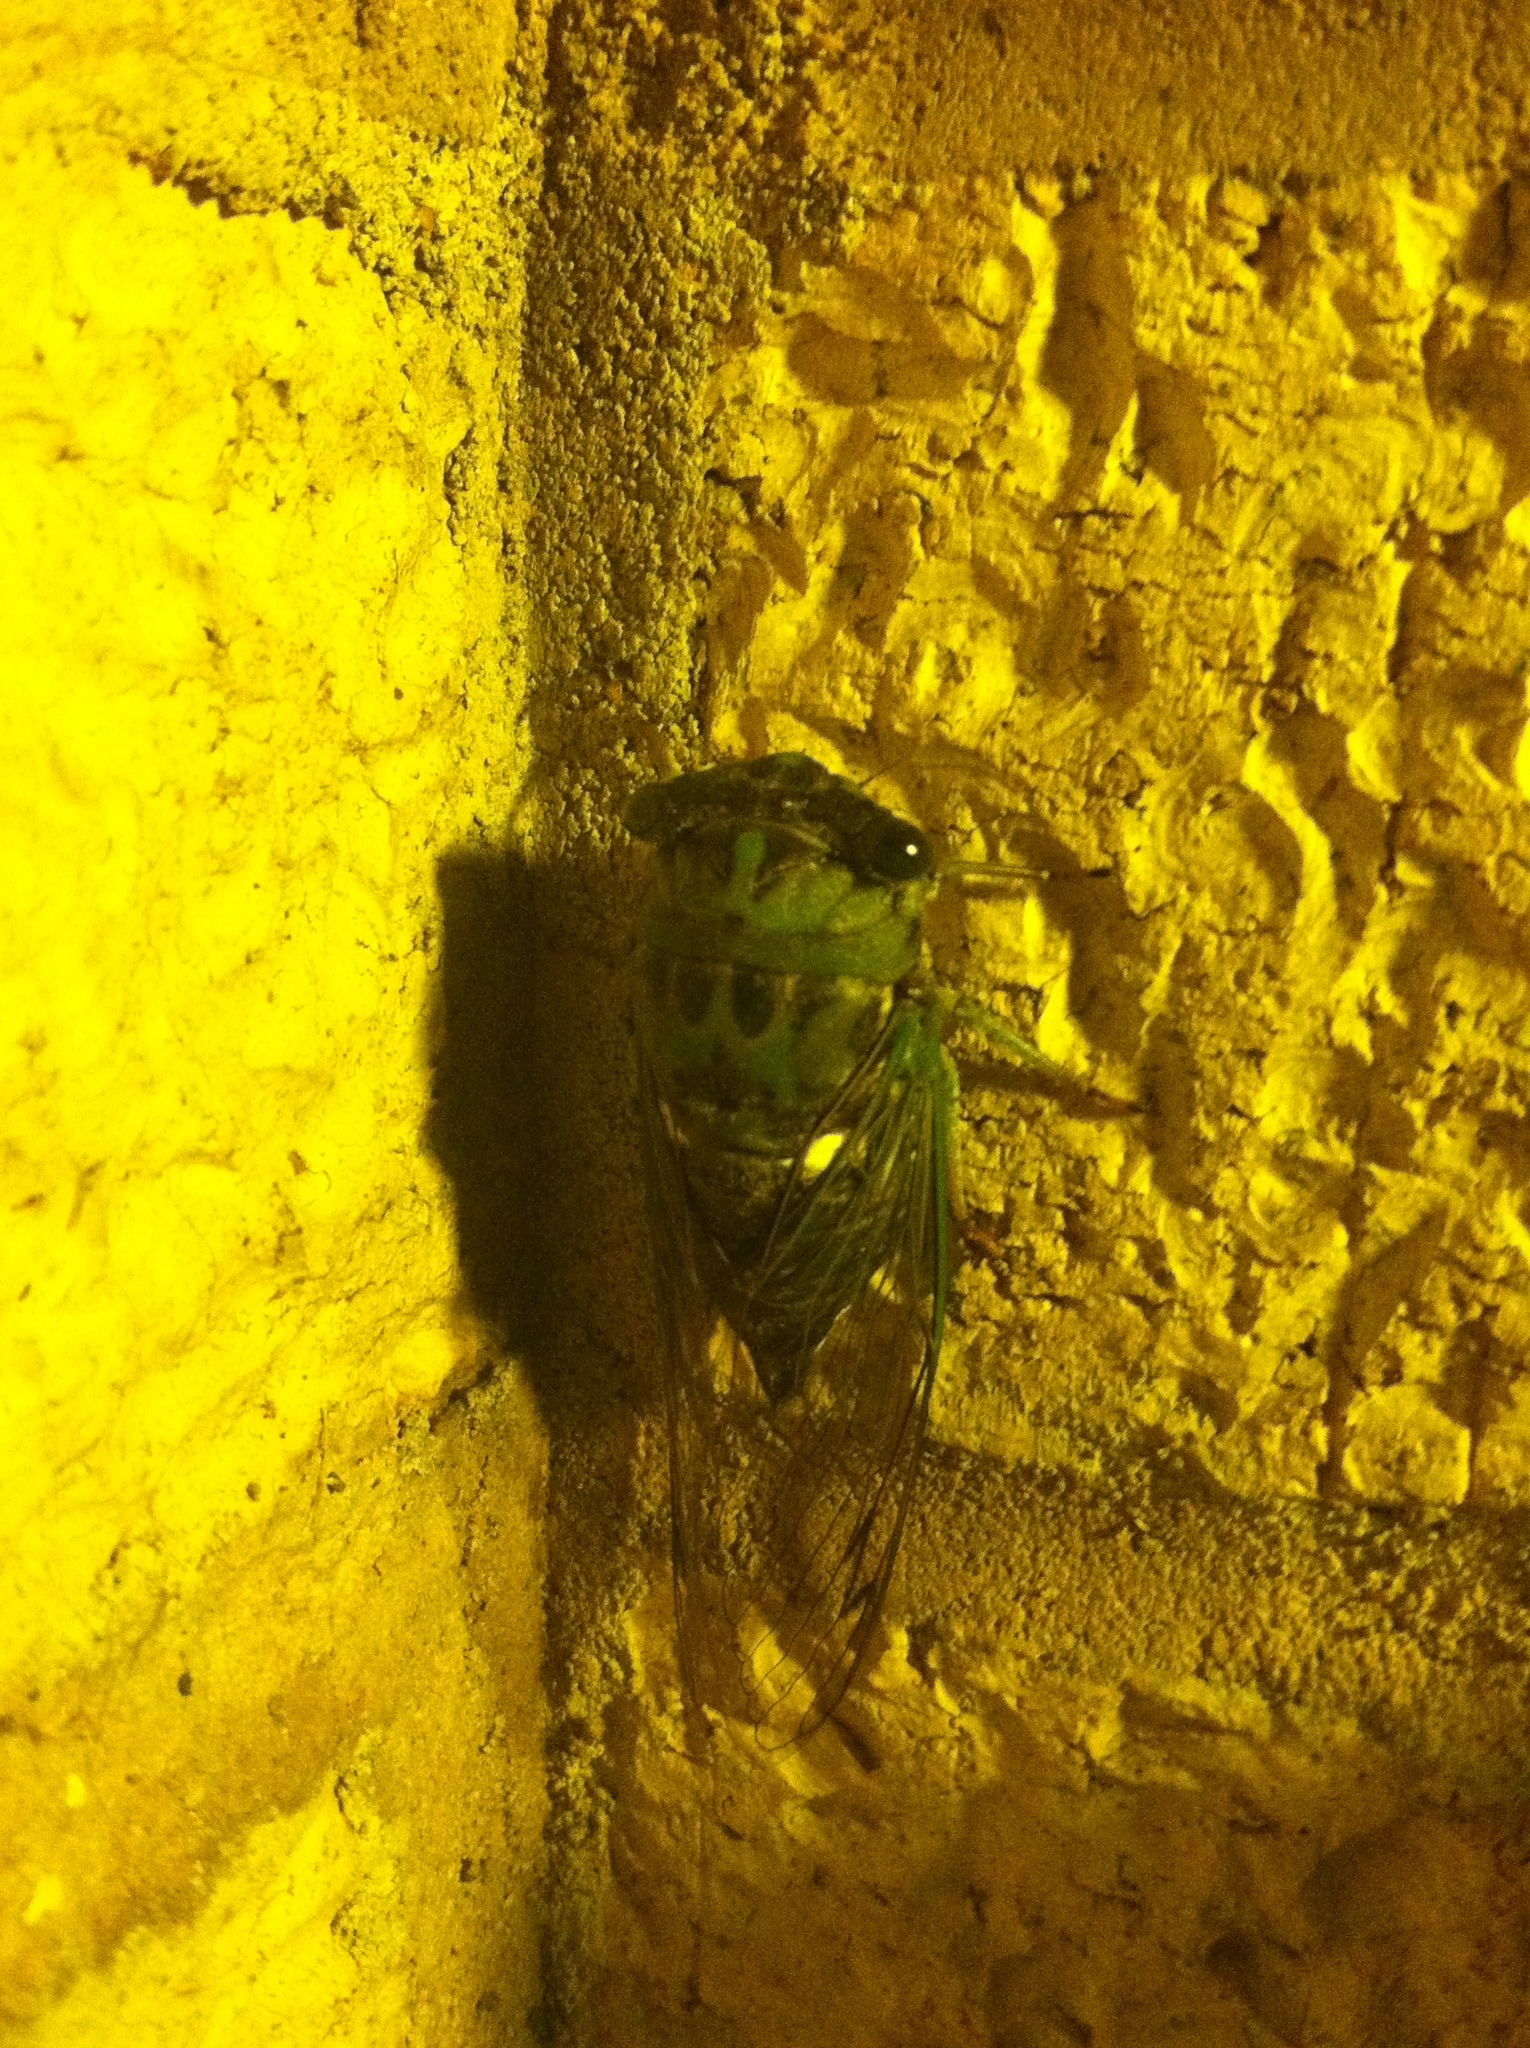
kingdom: Animalia
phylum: Arthropoda
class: Insecta
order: Hemiptera
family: Cicadidae
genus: Neotibicen
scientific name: Neotibicen pruinosus
